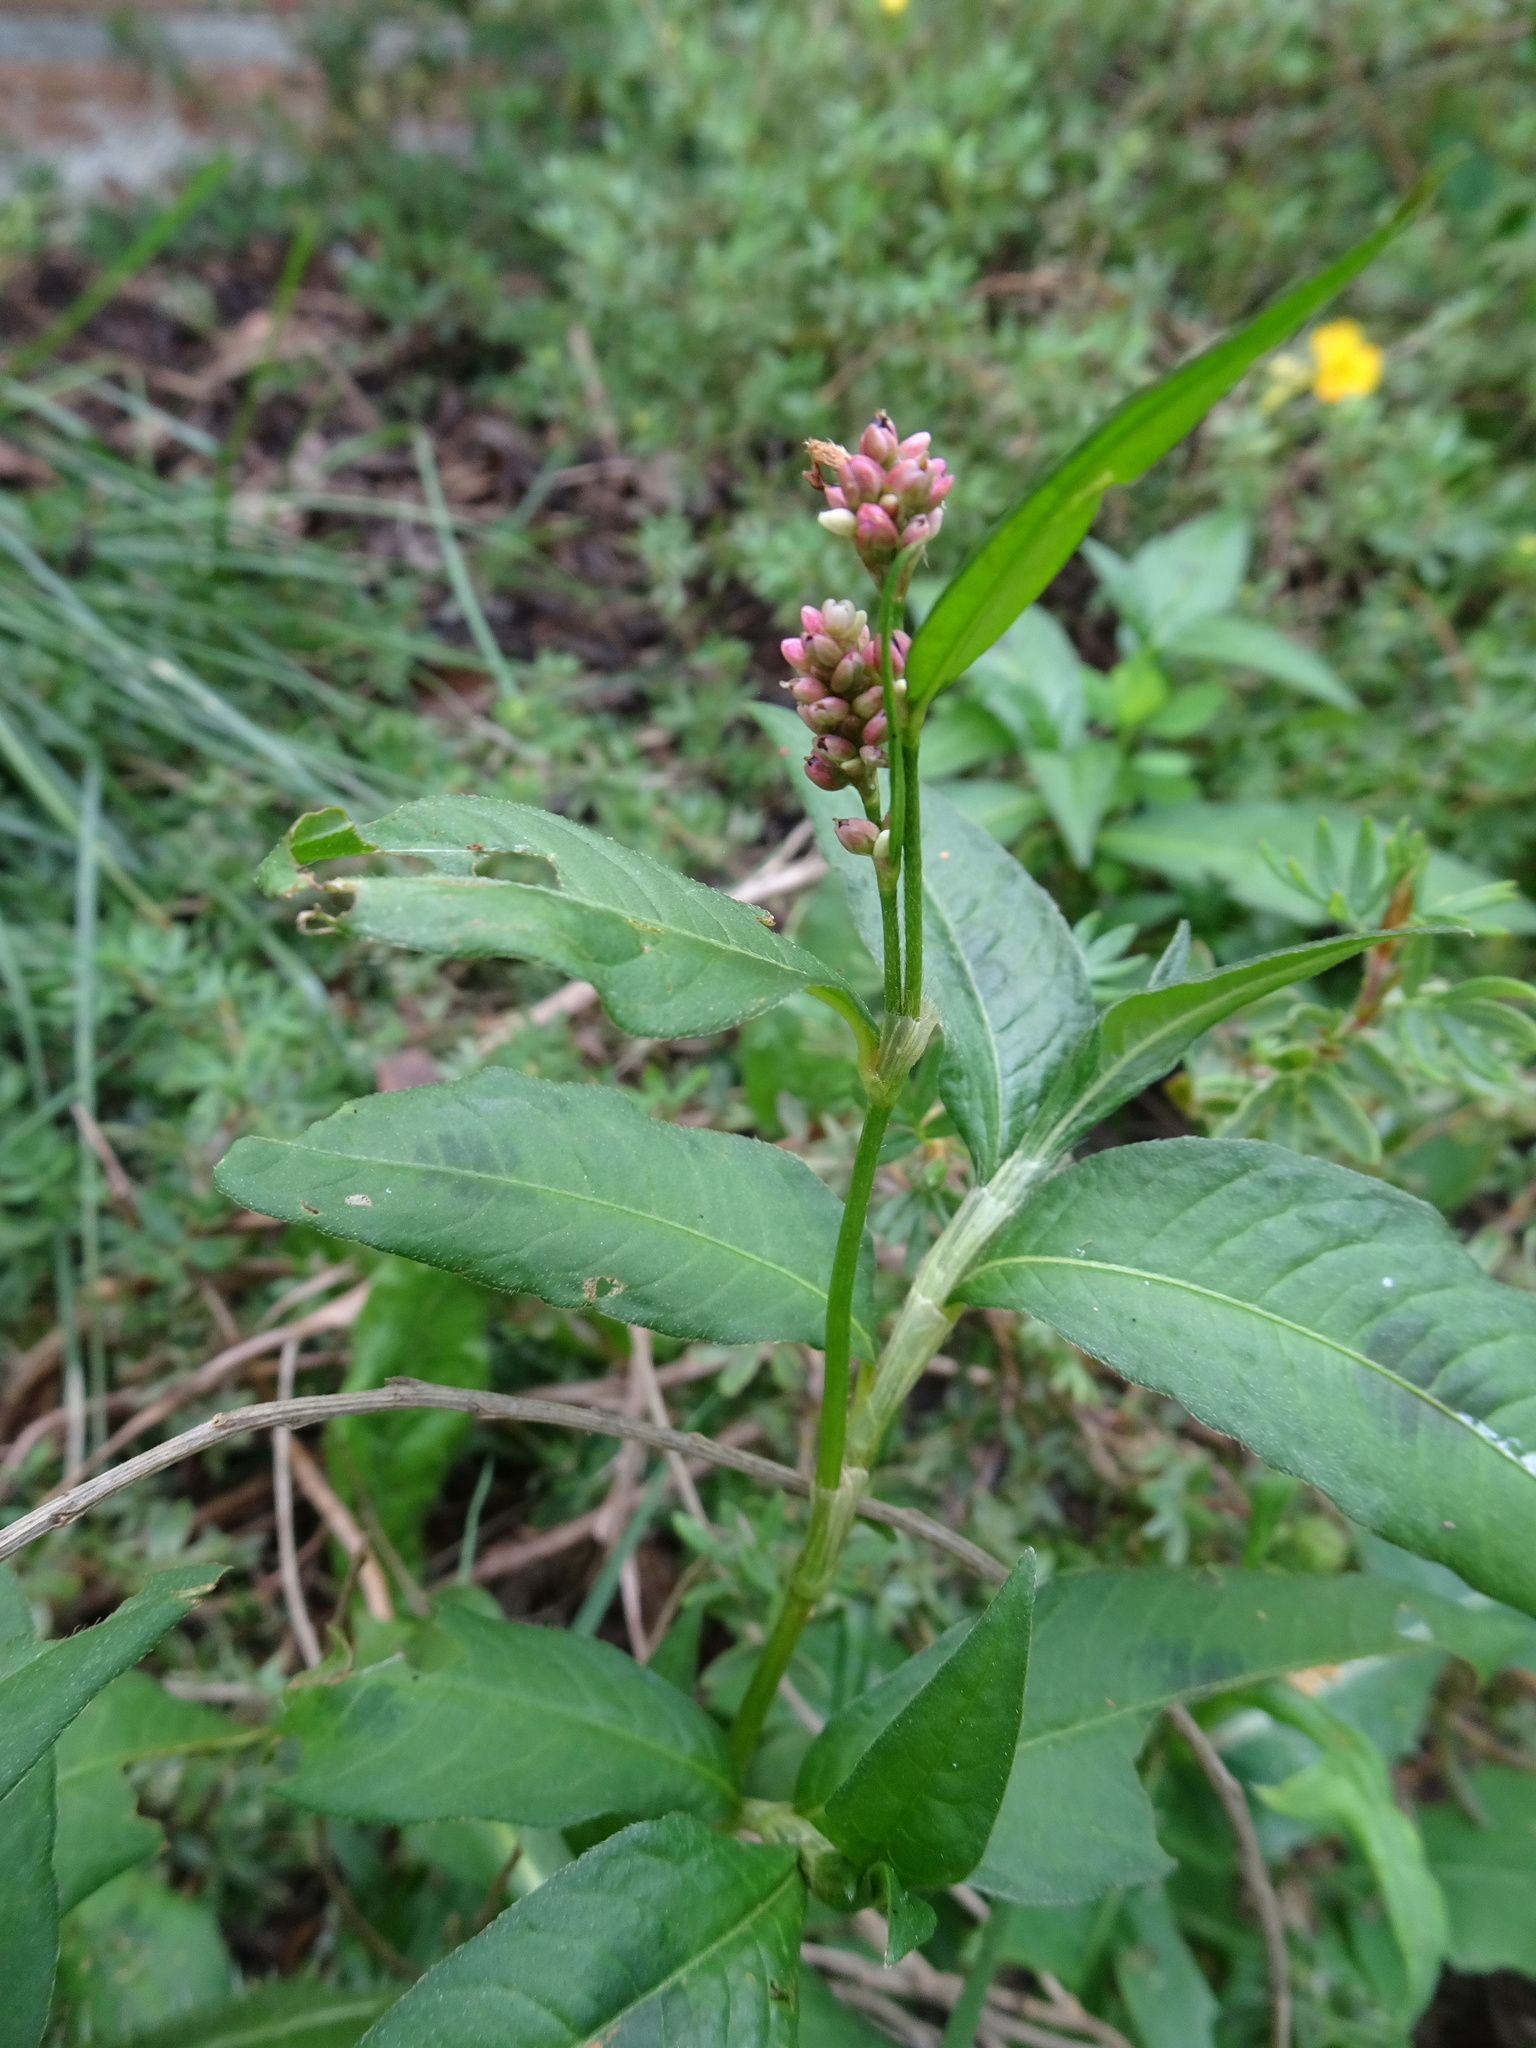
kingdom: Plantae
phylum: Tracheophyta
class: Magnoliopsida
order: Caryophyllales
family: Polygonaceae
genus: Persicaria
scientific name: Persicaria maculosa
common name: Redshank
